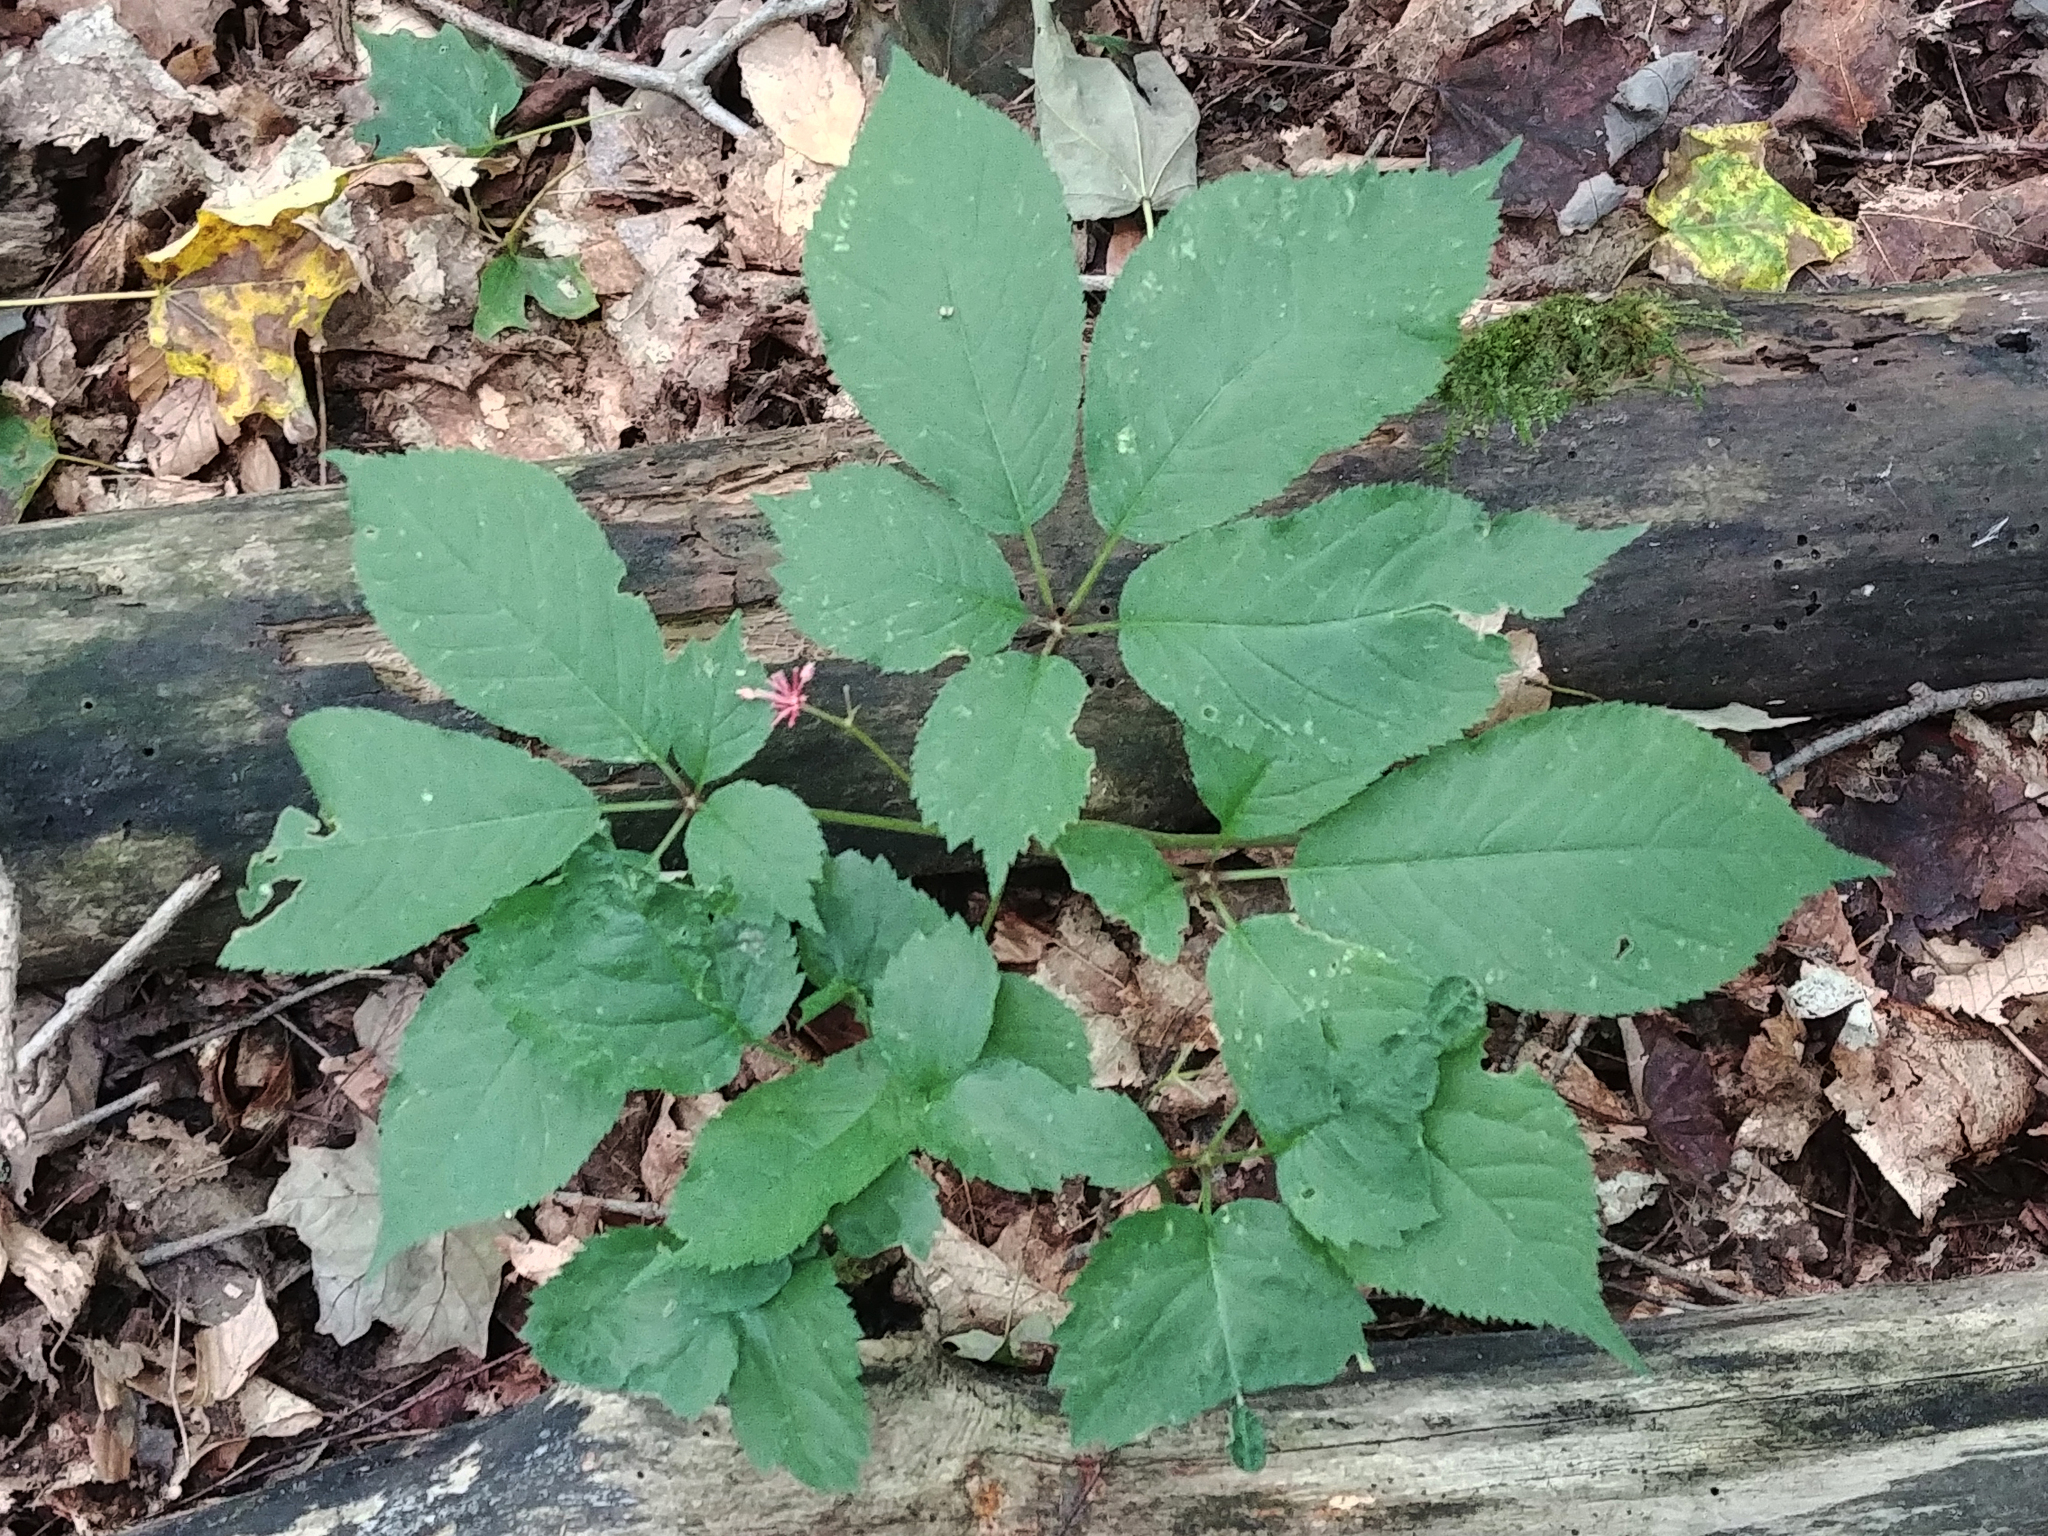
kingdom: Plantae
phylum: Tracheophyta
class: Magnoliopsida
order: Apiales
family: Araliaceae
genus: Panax
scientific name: Panax quinquefolius
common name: American ginseng
